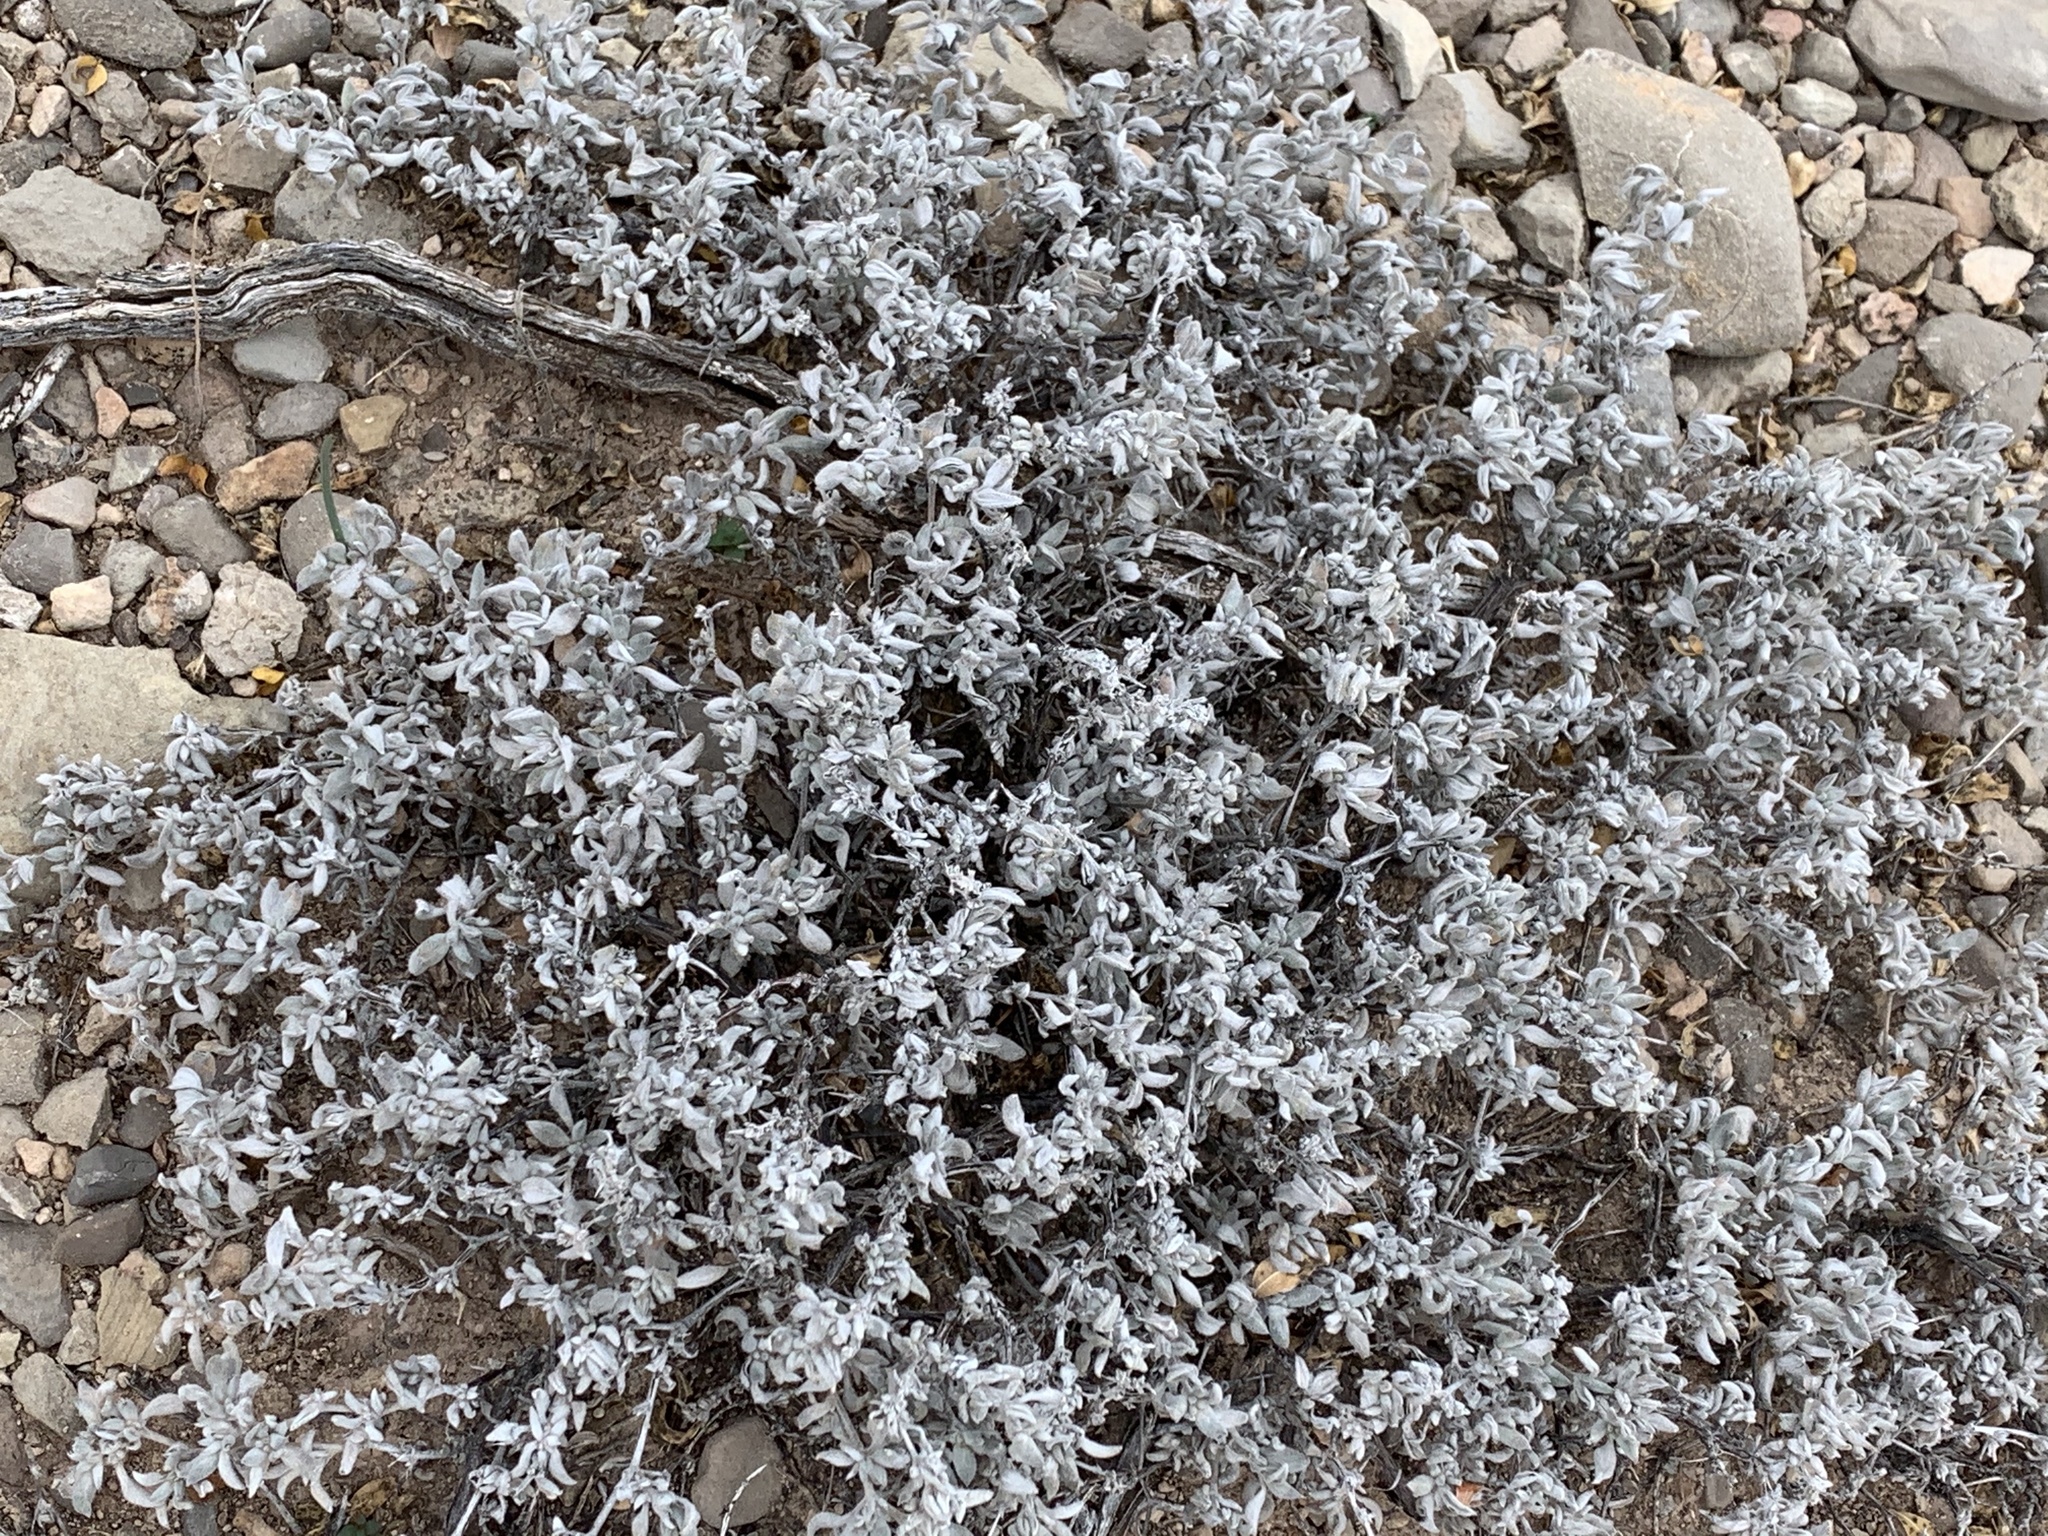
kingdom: Plantae
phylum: Tracheophyta
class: Magnoliopsida
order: Boraginales
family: Ehretiaceae
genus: Tiquilia
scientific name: Tiquilia canescens
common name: Hairy tiquilia
